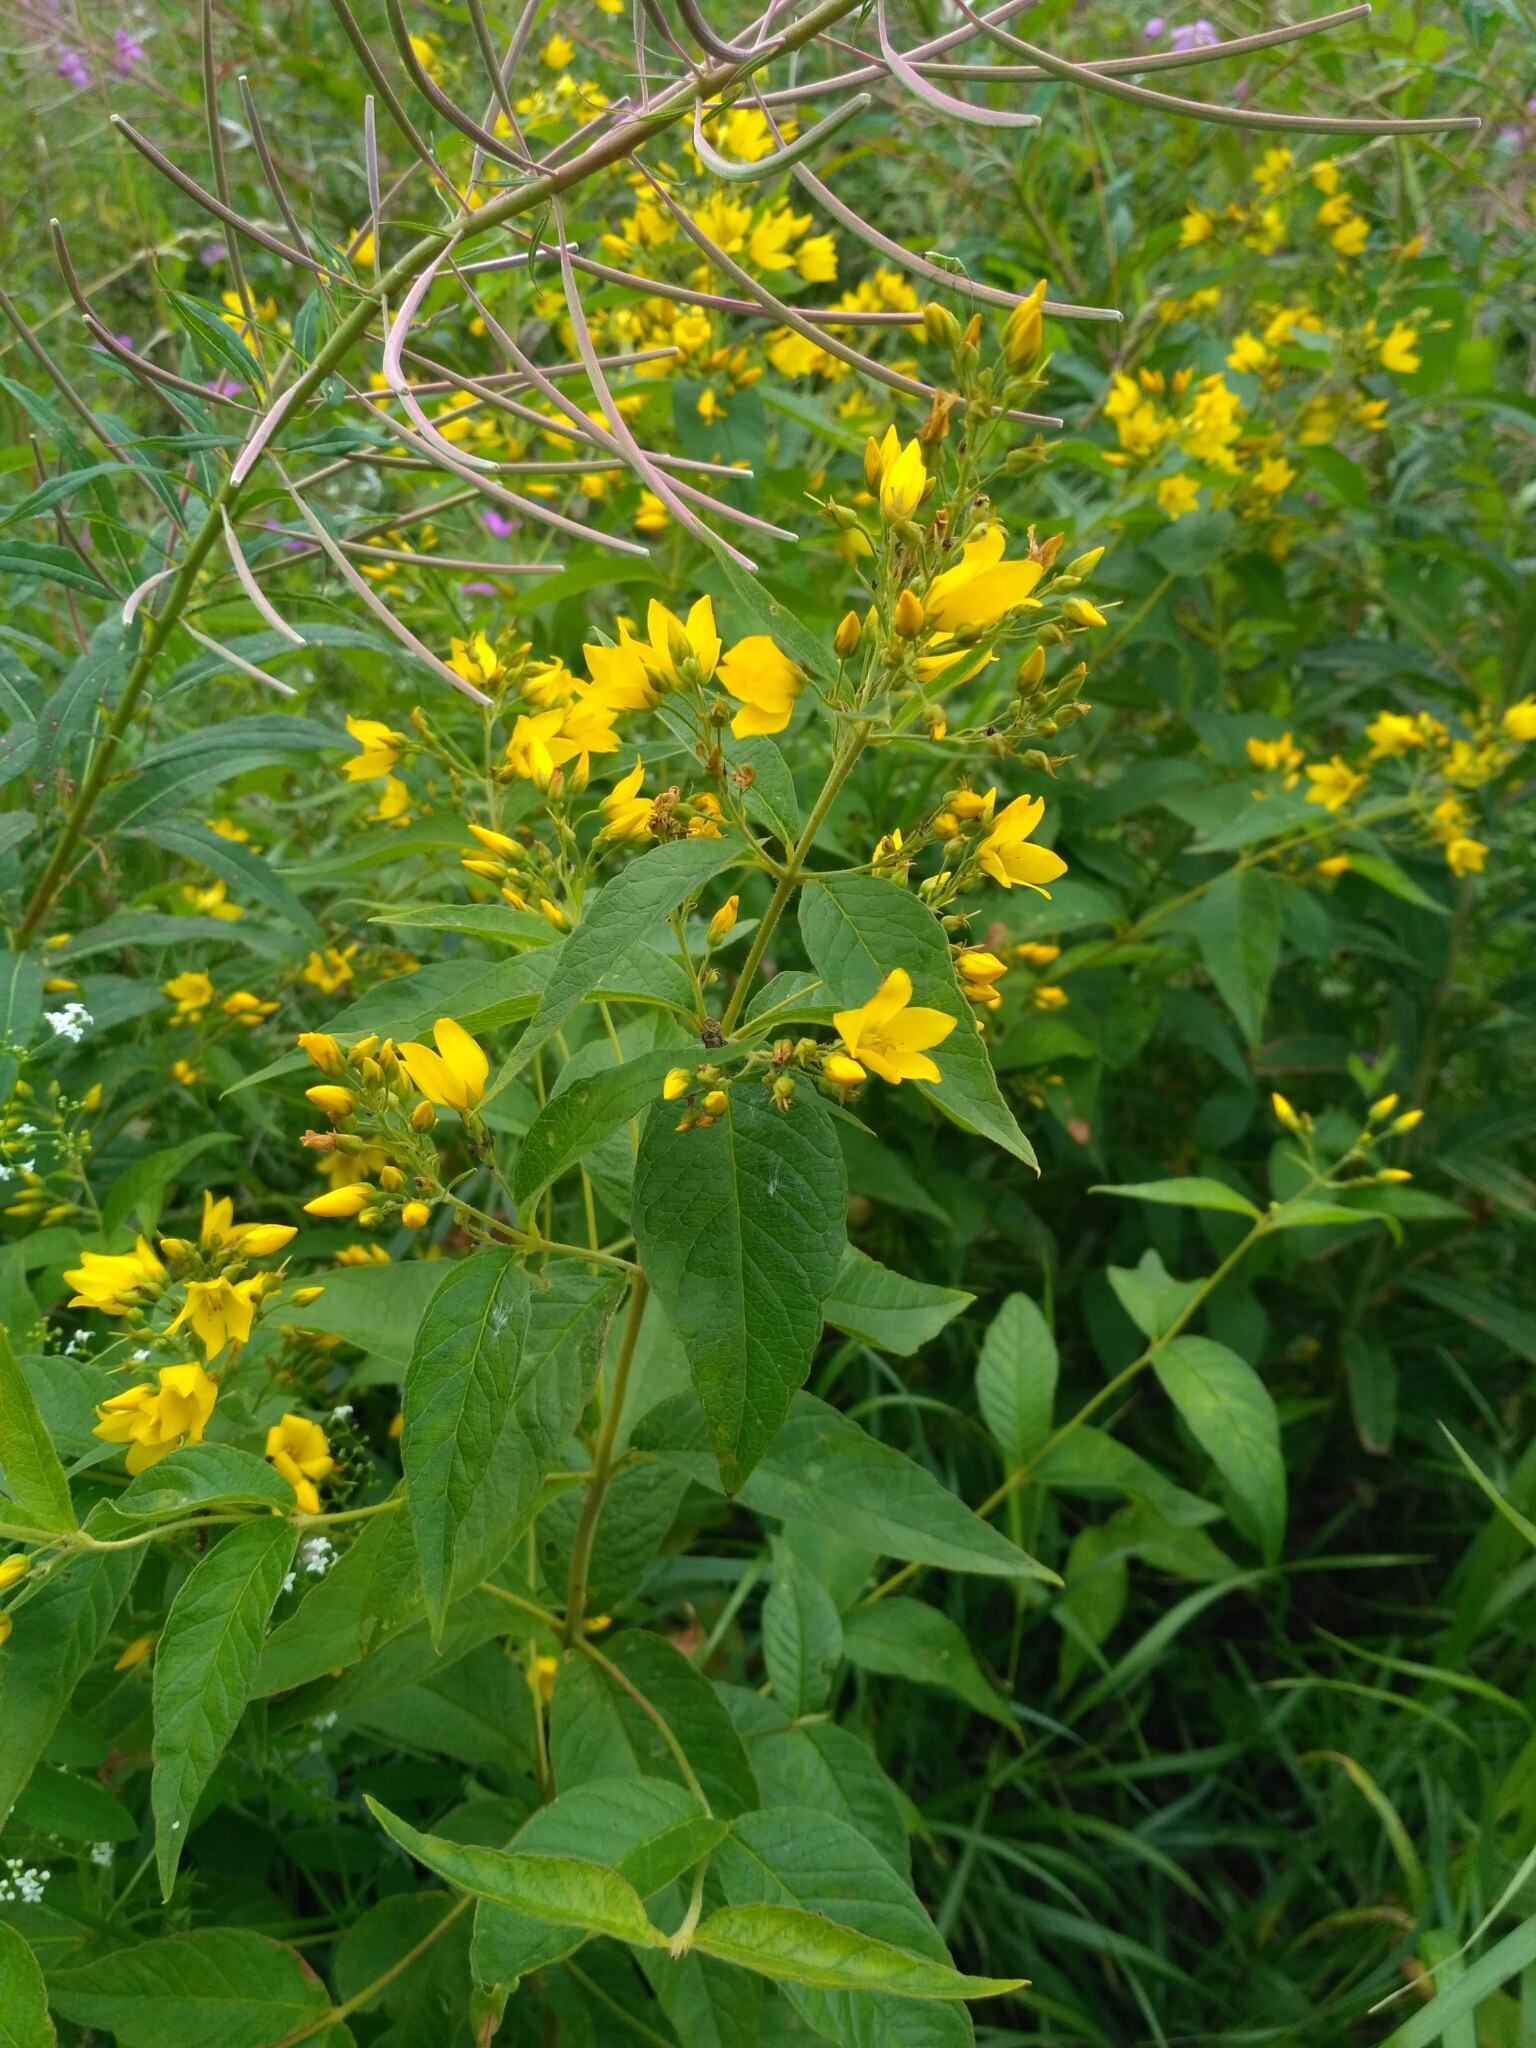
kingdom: Plantae
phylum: Tracheophyta
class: Magnoliopsida
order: Ericales
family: Primulaceae
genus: Lysimachia
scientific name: Lysimachia vulgaris
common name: Yellow loosestrife
